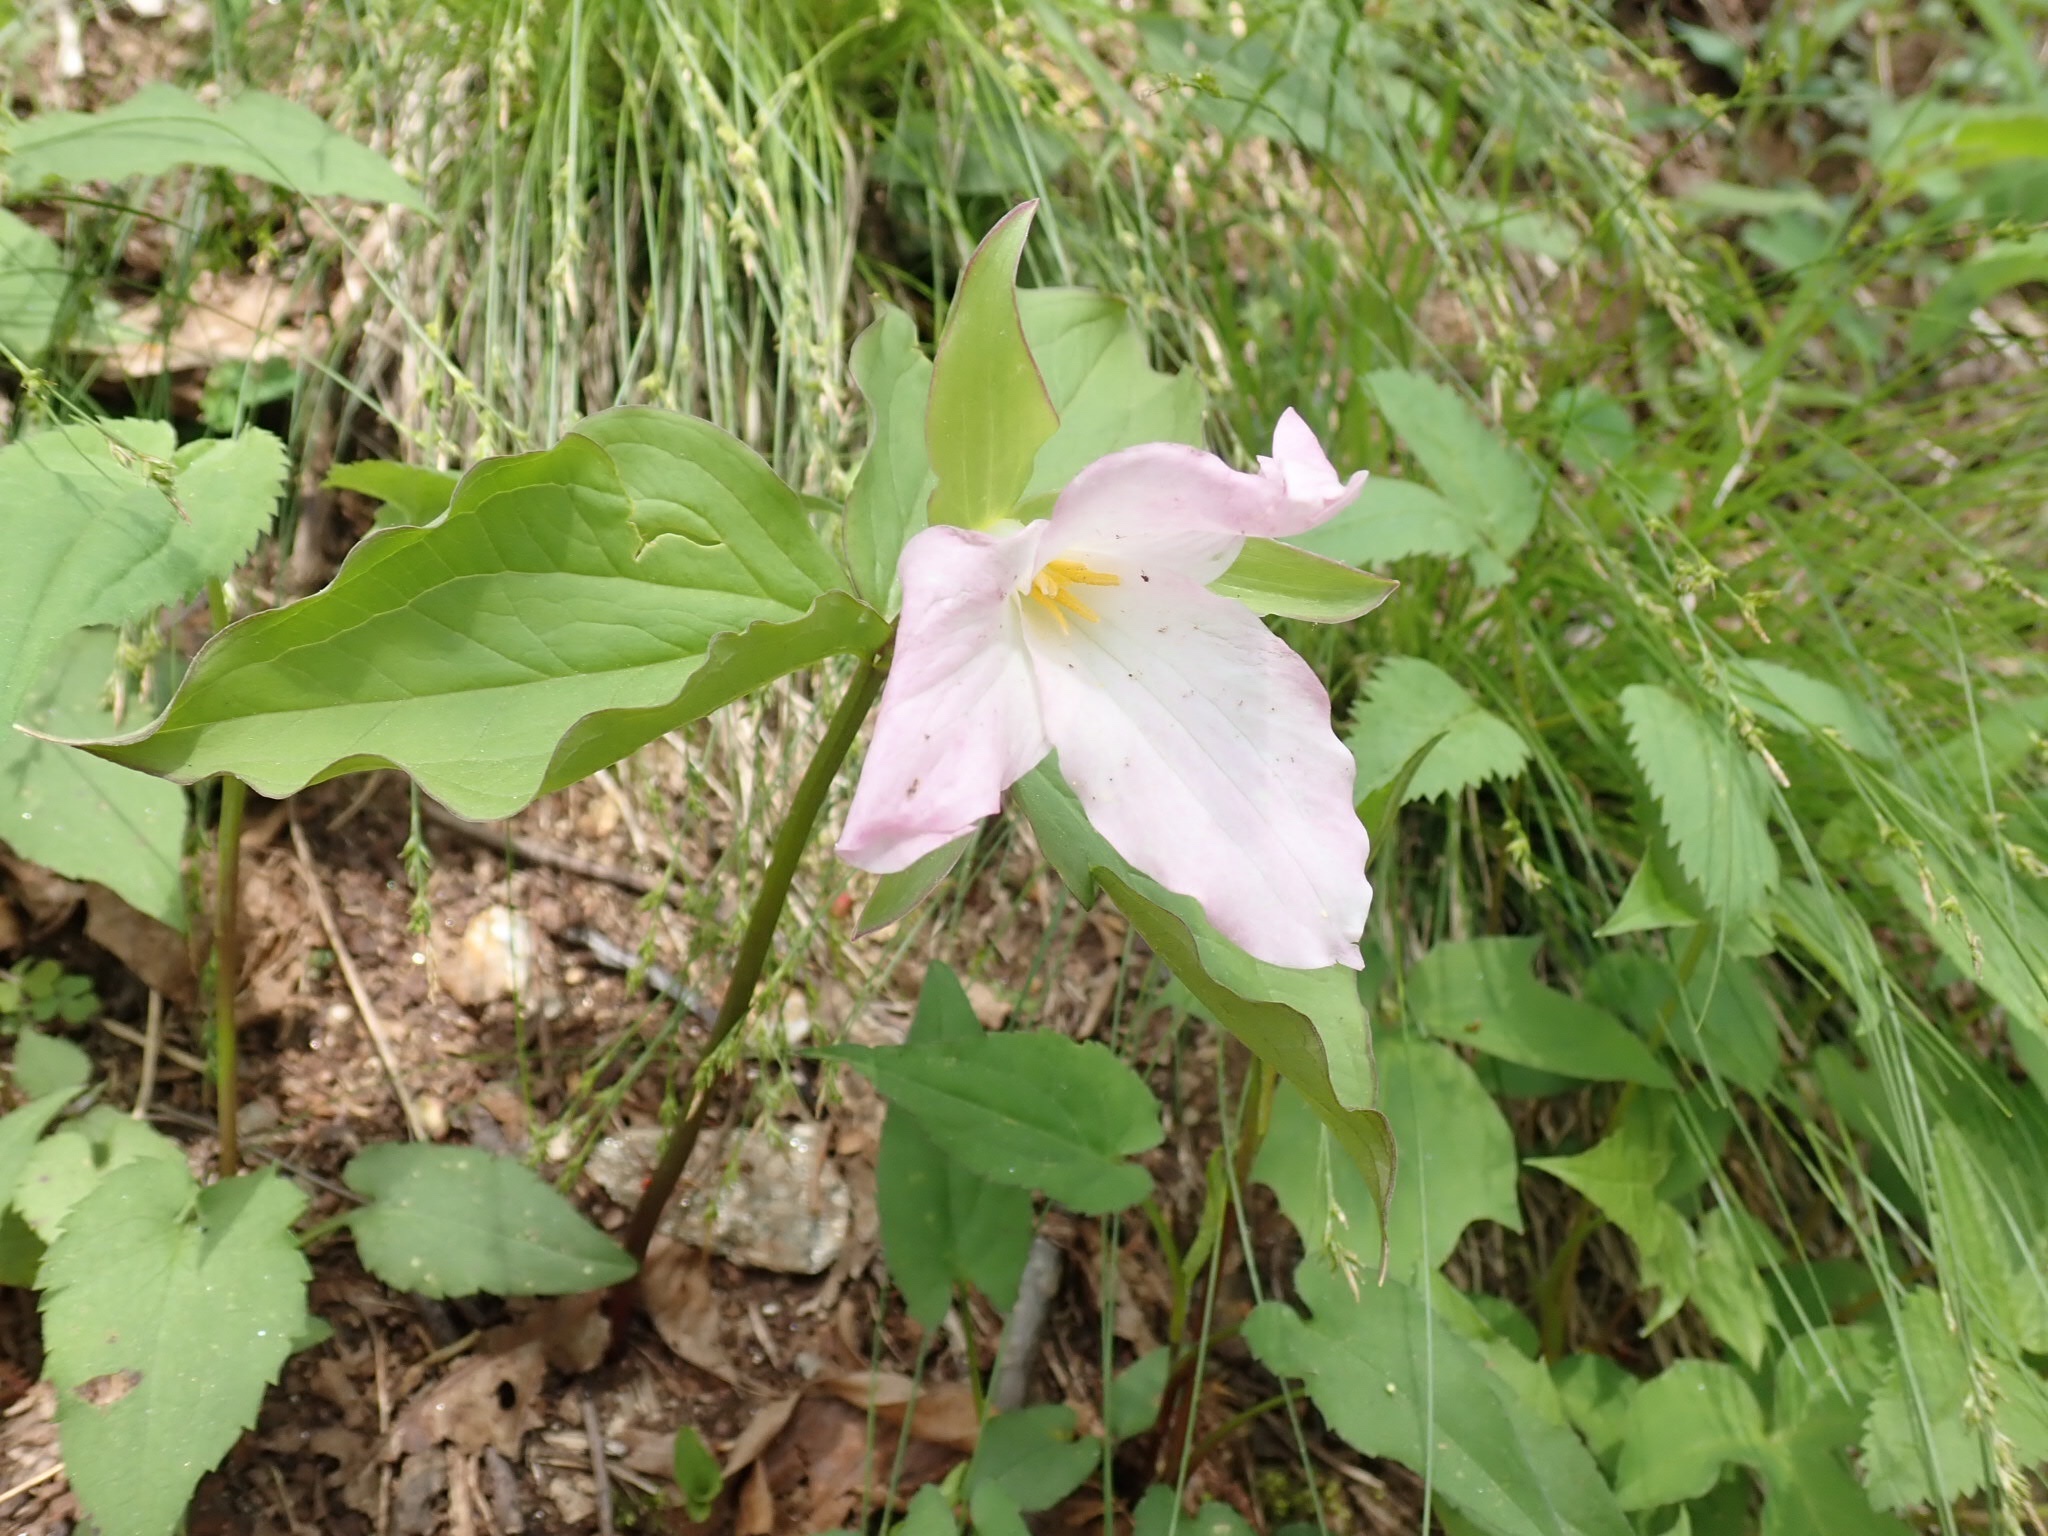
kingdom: Plantae
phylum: Tracheophyta
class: Liliopsida
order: Liliales
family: Melanthiaceae
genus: Trillium
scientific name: Trillium grandiflorum
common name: Great white trillium
